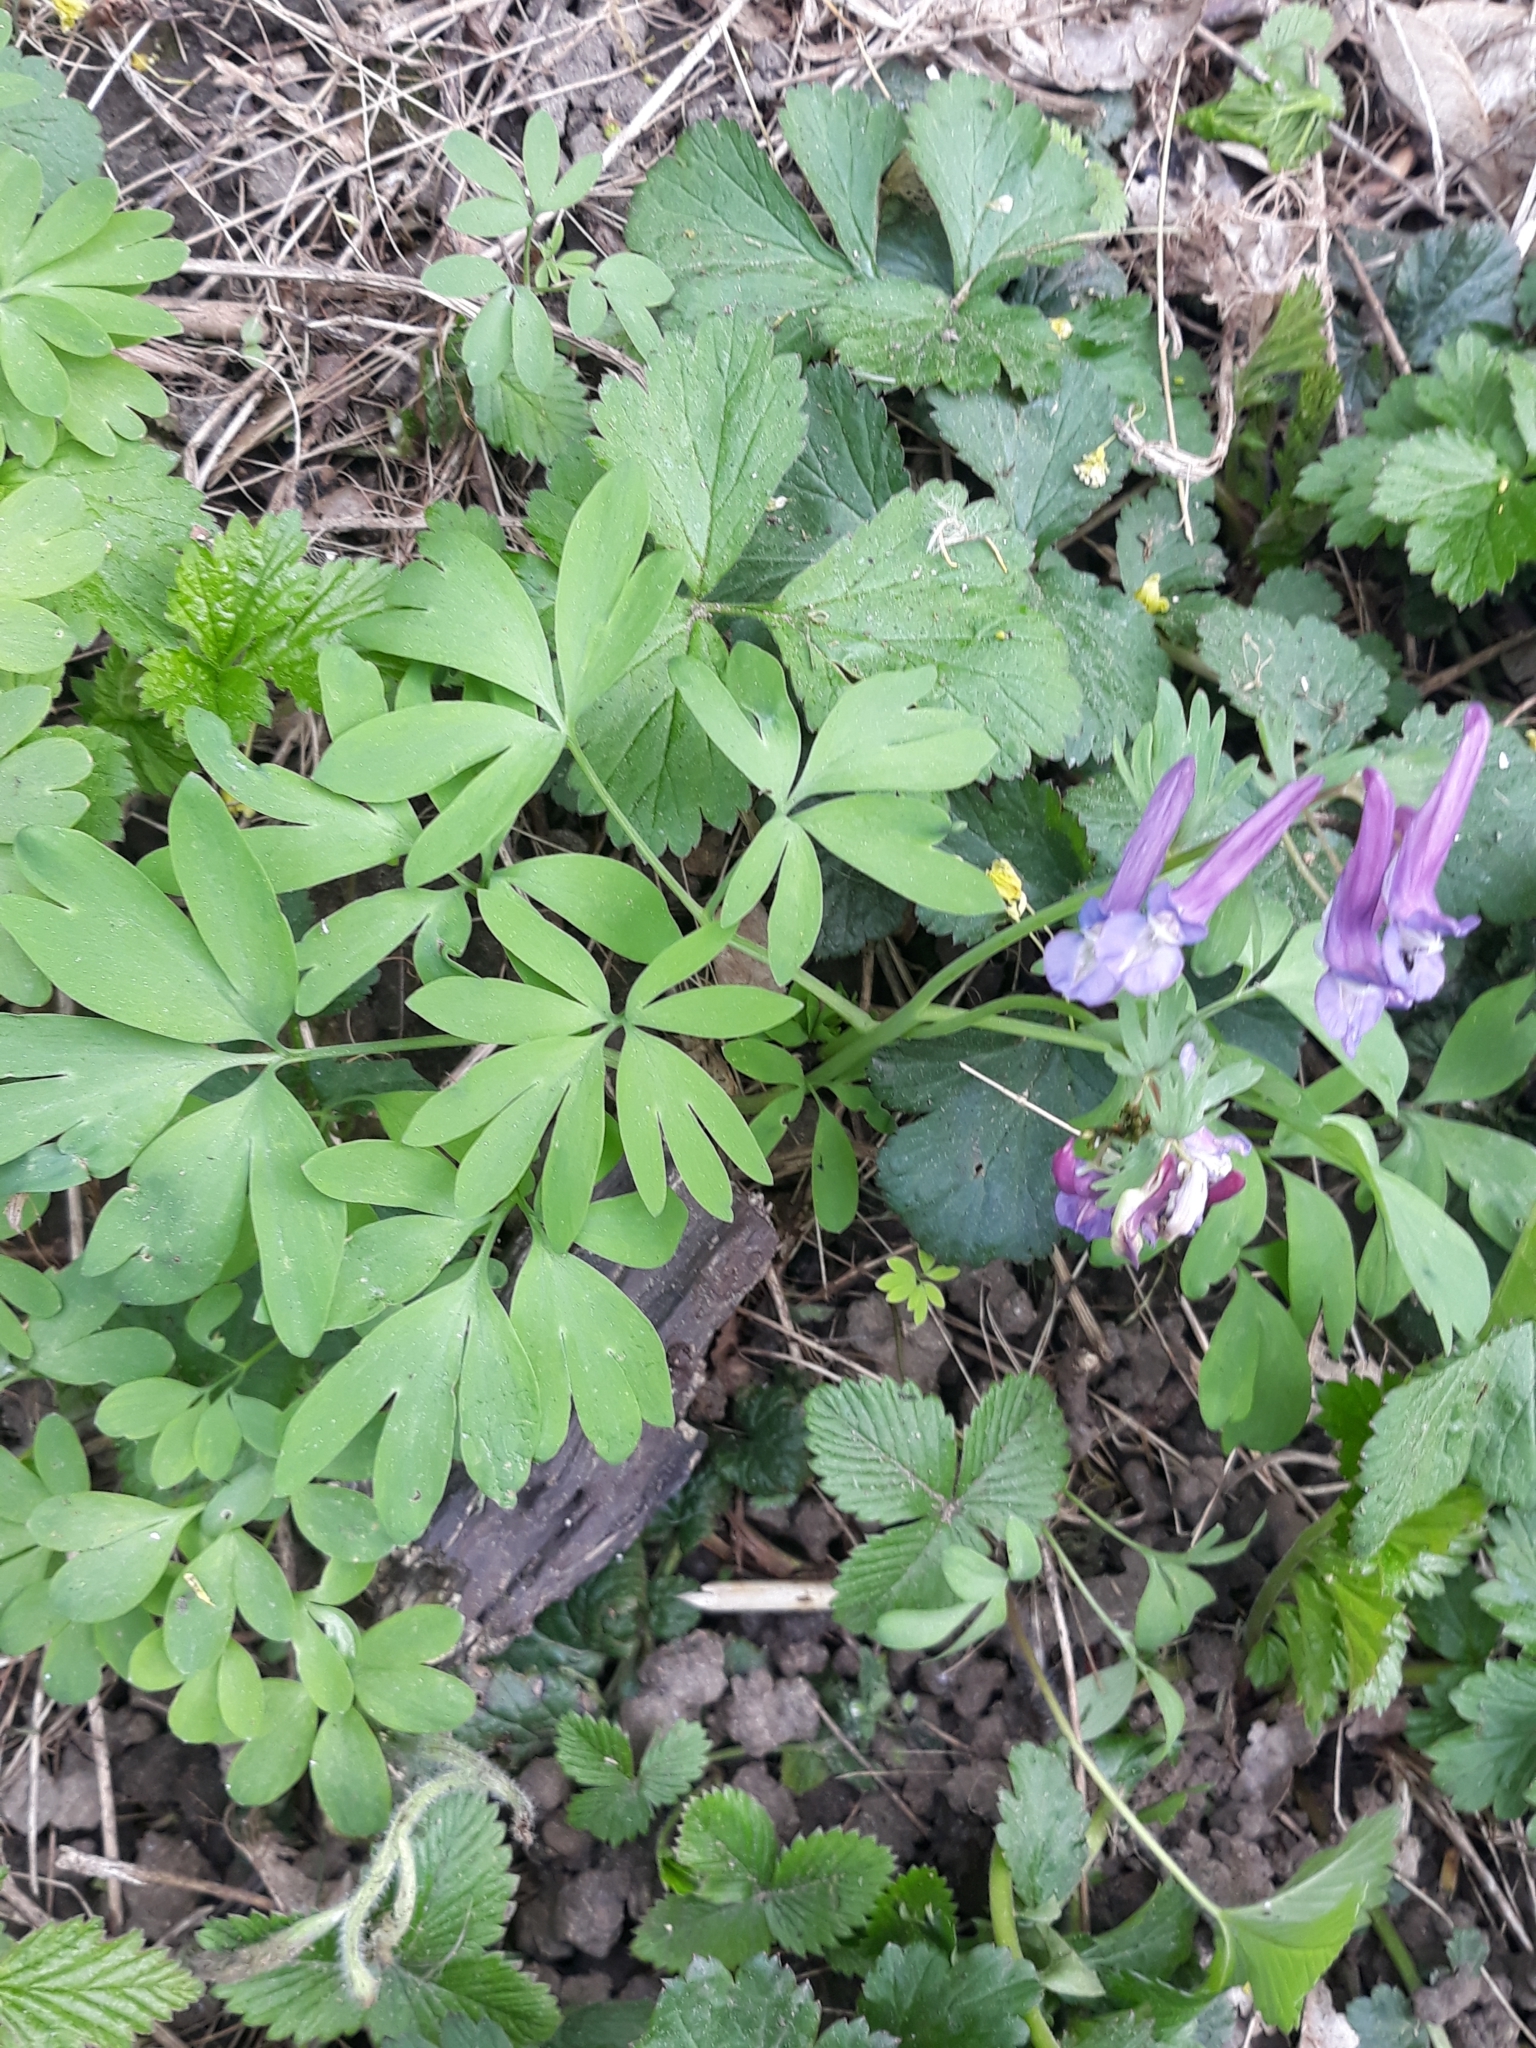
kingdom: Plantae
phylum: Tracheophyta
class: Magnoliopsida
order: Ranunculales
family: Papaveraceae
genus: Corydalis
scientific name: Corydalis solida
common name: Bird-in-a-bush
